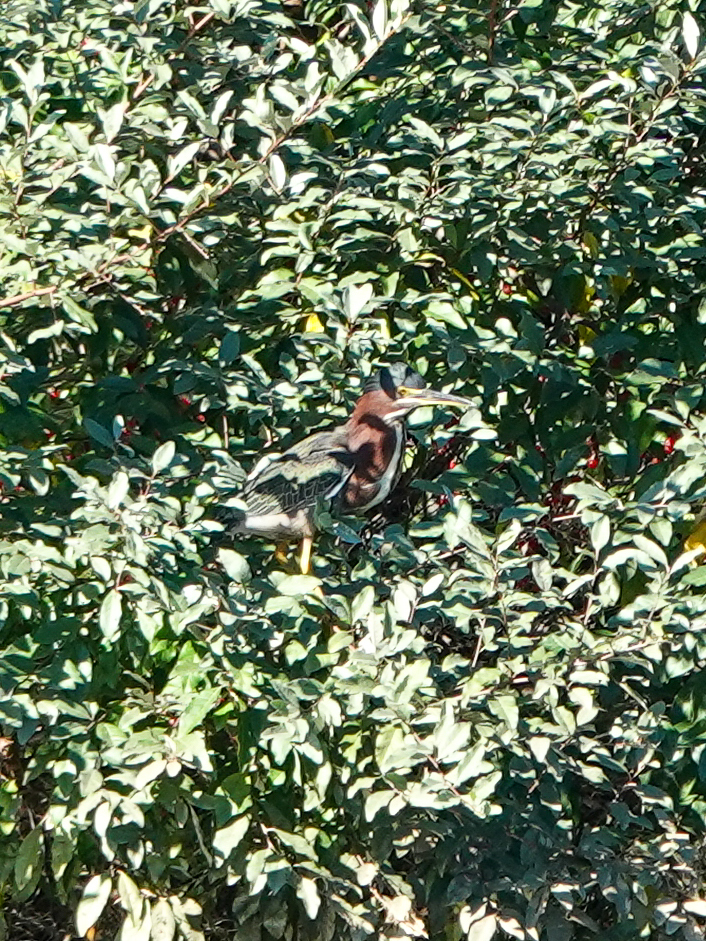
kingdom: Animalia
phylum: Chordata
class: Aves
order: Pelecaniformes
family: Ardeidae
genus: Butorides
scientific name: Butorides virescens
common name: Green heron
